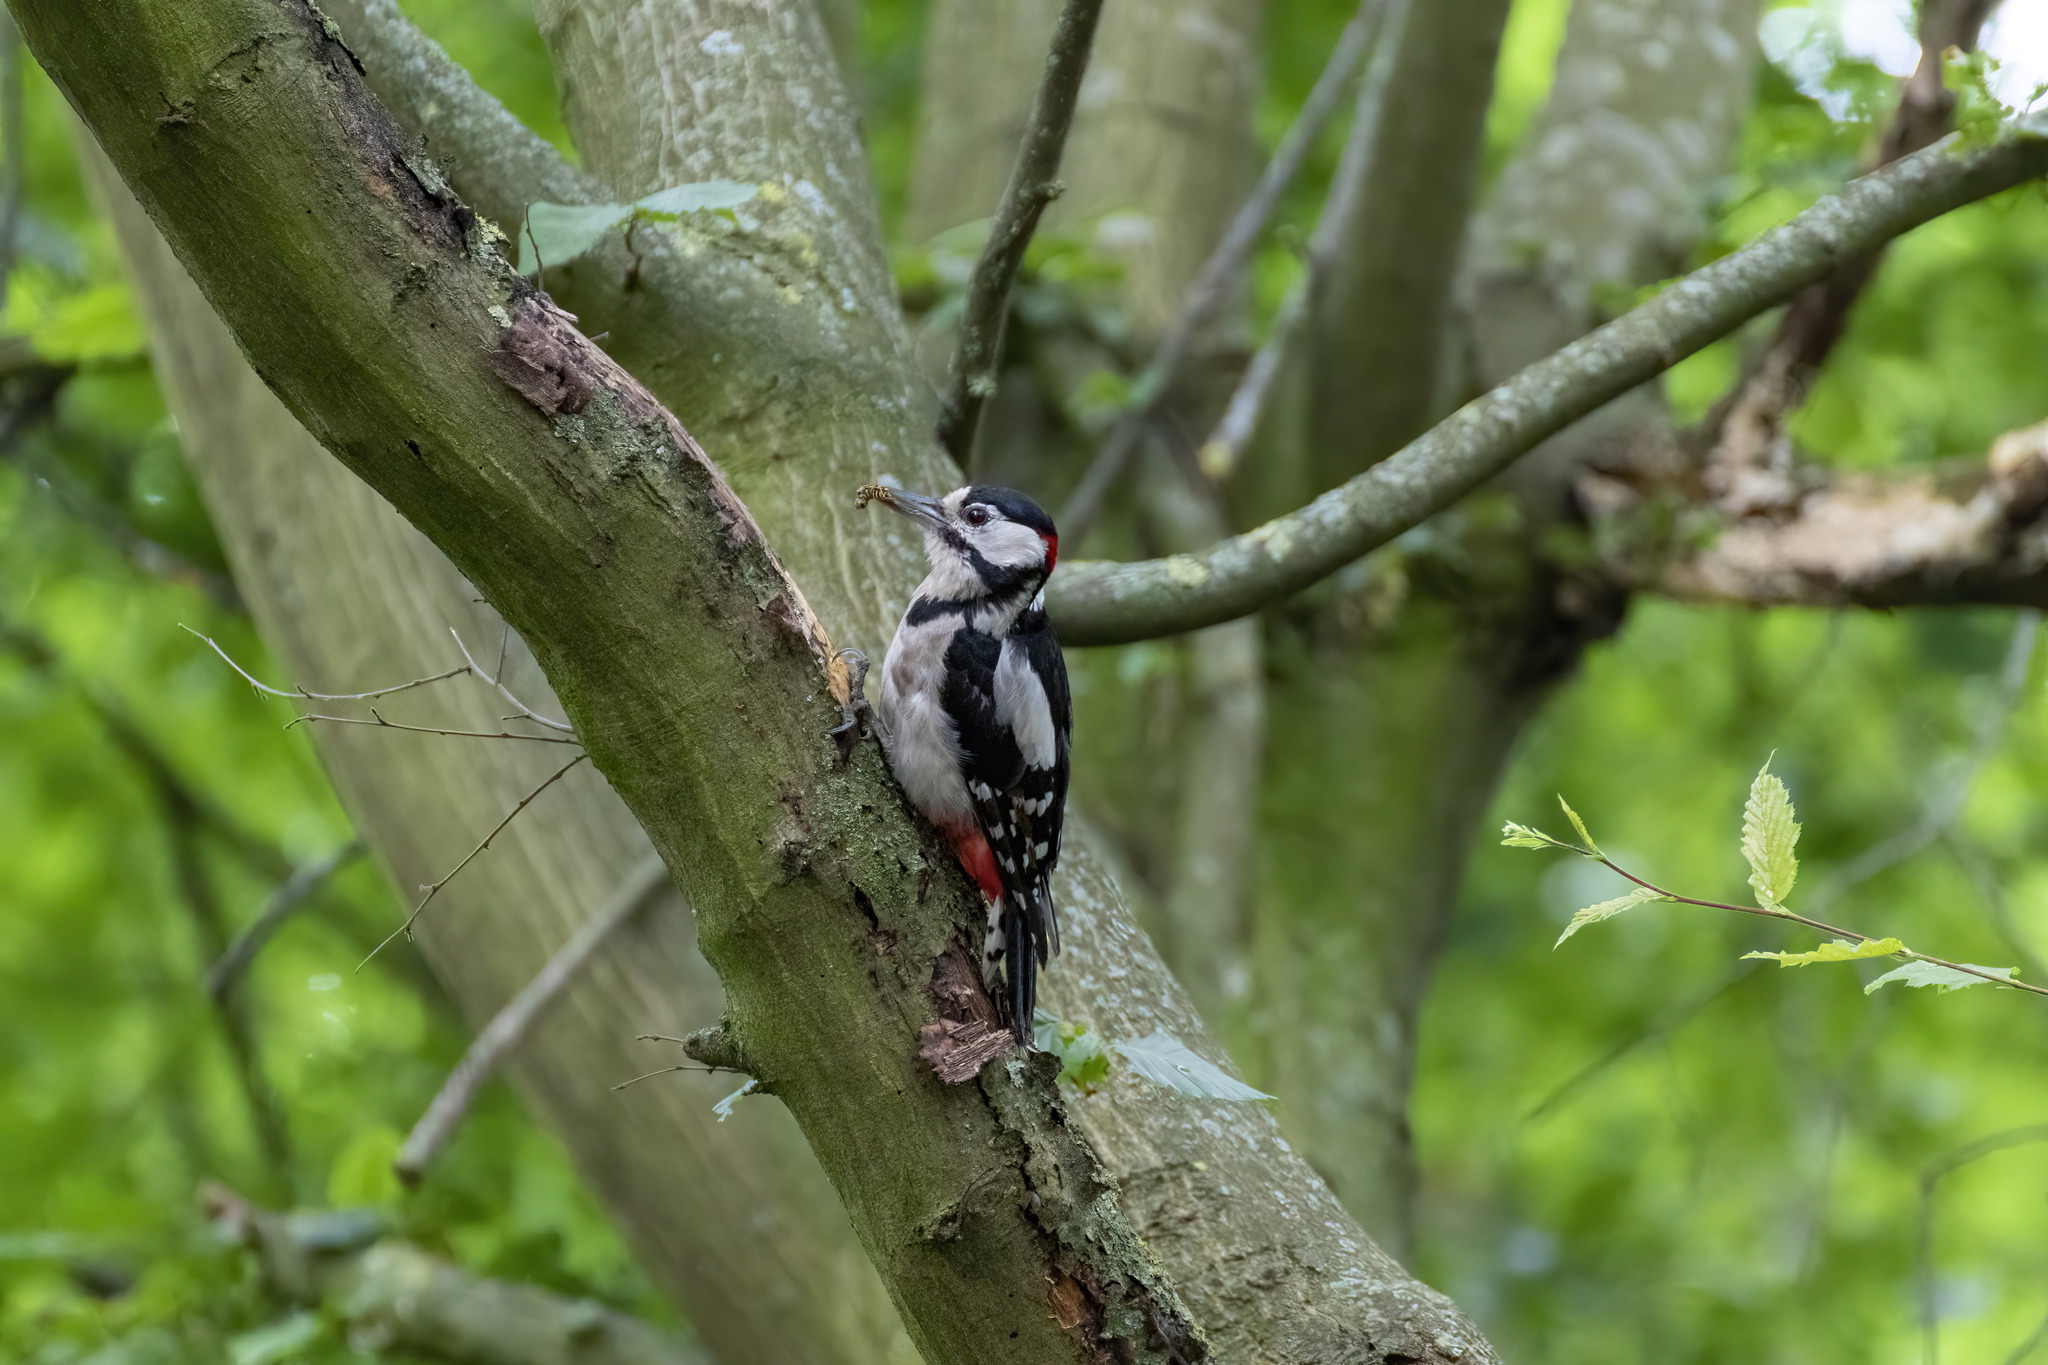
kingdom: Animalia
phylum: Chordata
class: Aves
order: Piciformes
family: Picidae
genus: Dendrocopos
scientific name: Dendrocopos major
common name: Great spotted woodpecker
